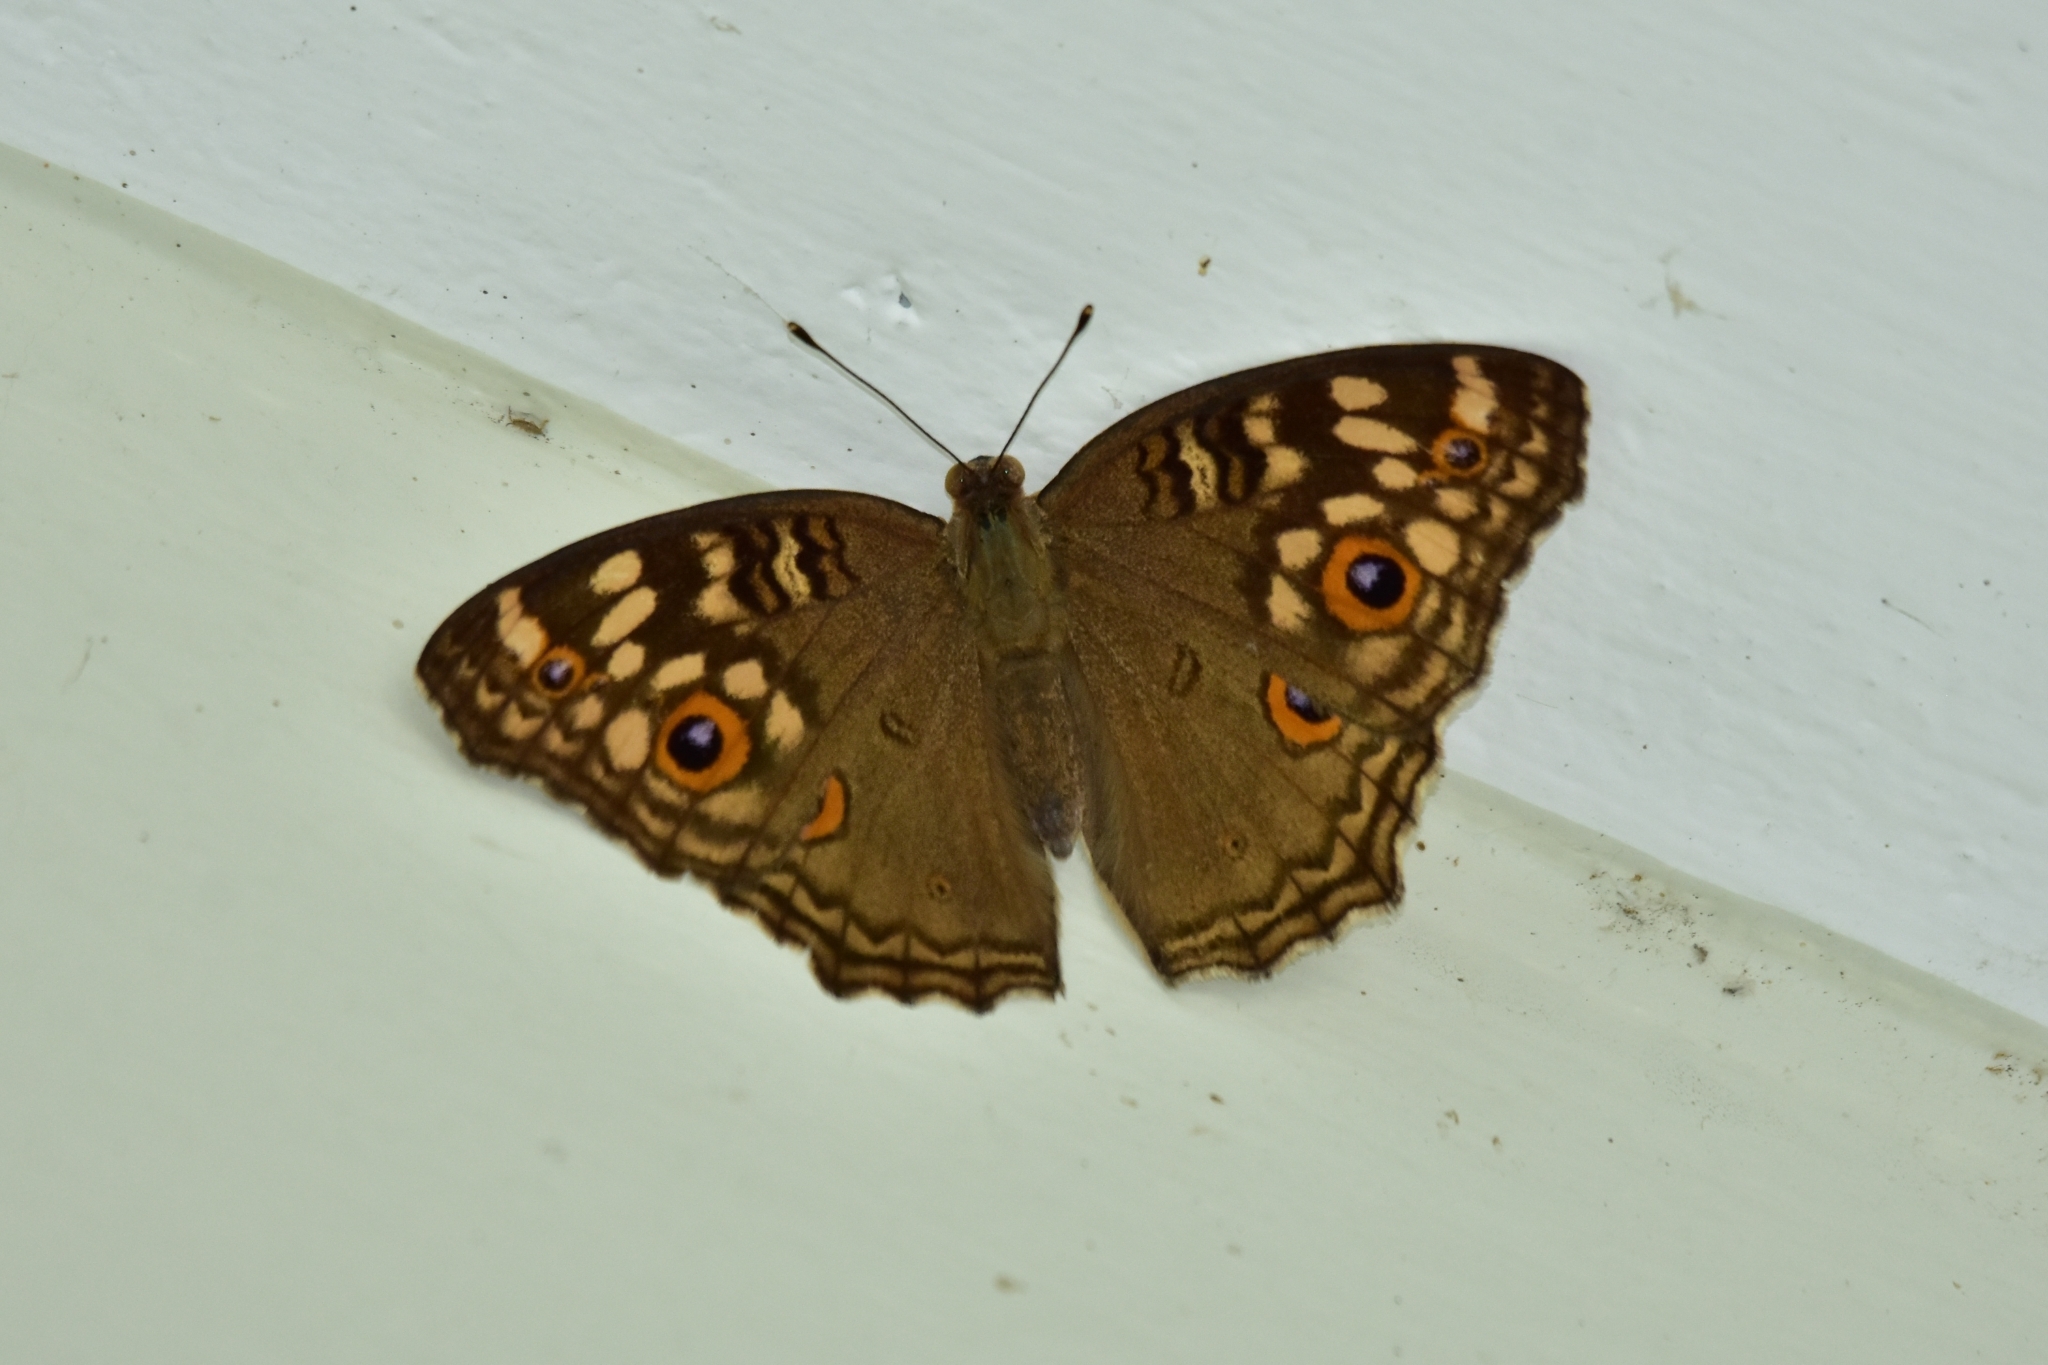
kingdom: Animalia
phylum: Arthropoda
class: Insecta
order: Lepidoptera
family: Nymphalidae
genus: Junonia
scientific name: Junonia lemonias
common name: Lemon pansy
